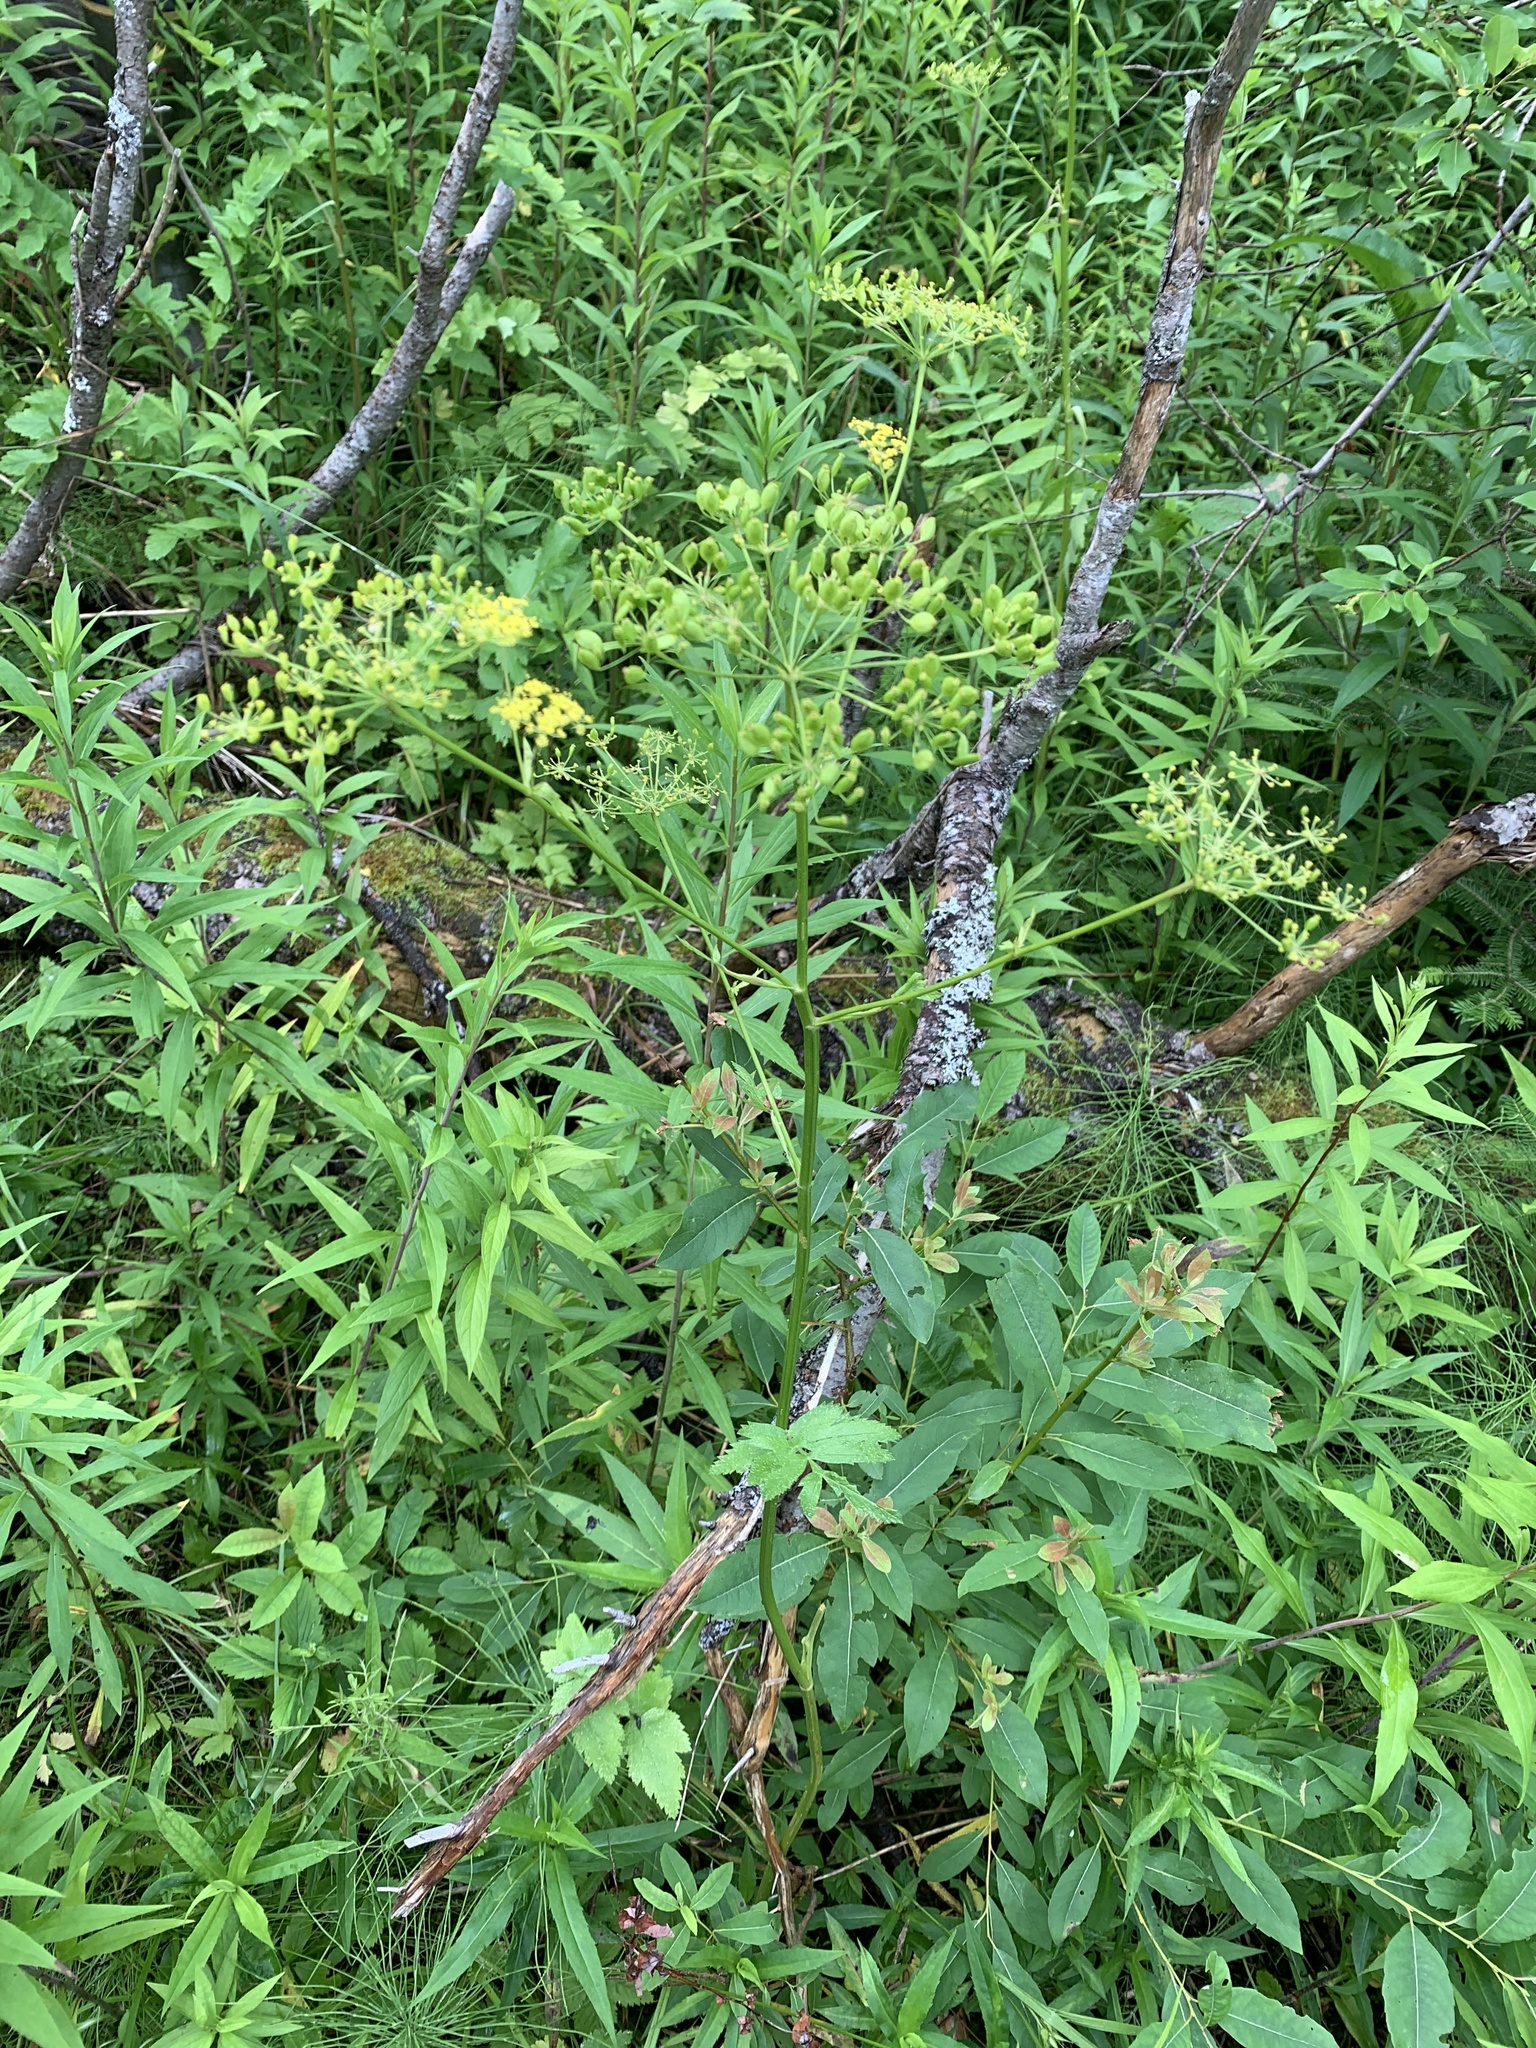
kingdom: Plantae
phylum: Tracheophyta
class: Magnoliopsida
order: Apiales
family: Apiaceae
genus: Pastinaca
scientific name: Pastinaca sativa
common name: Wild parsnip
